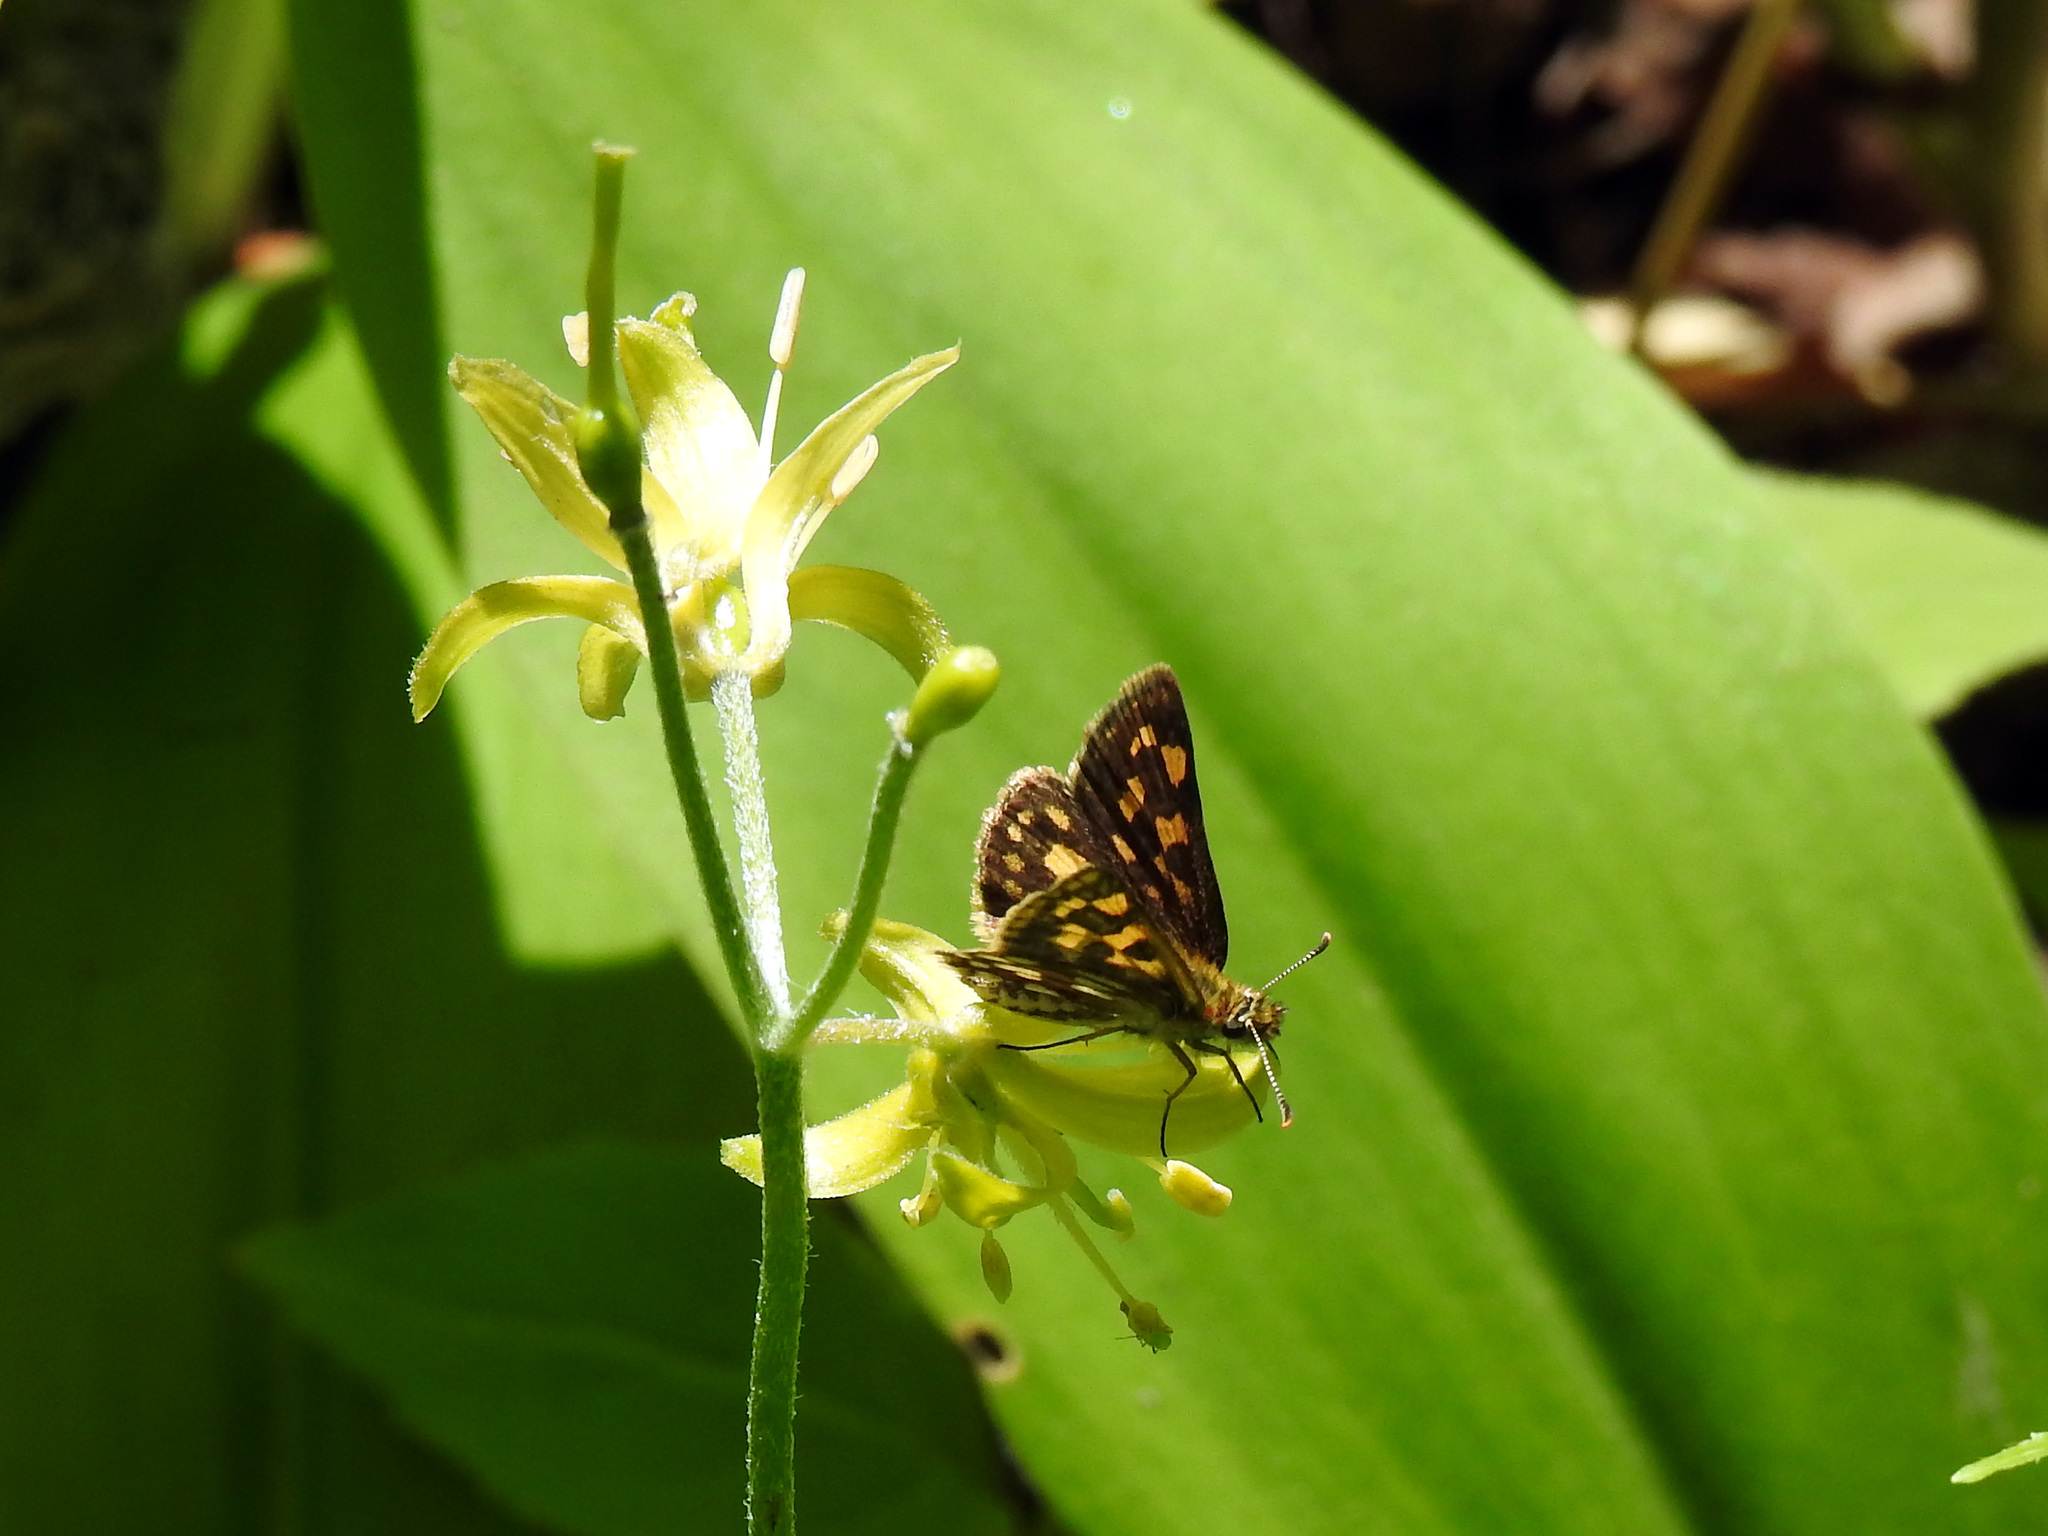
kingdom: Animalia
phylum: Arthropoda
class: Insecta
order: Lepidoptera
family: Hesperiidae
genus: Carterocephalus
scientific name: Carterocephalus mandan
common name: Arctic skipperling
